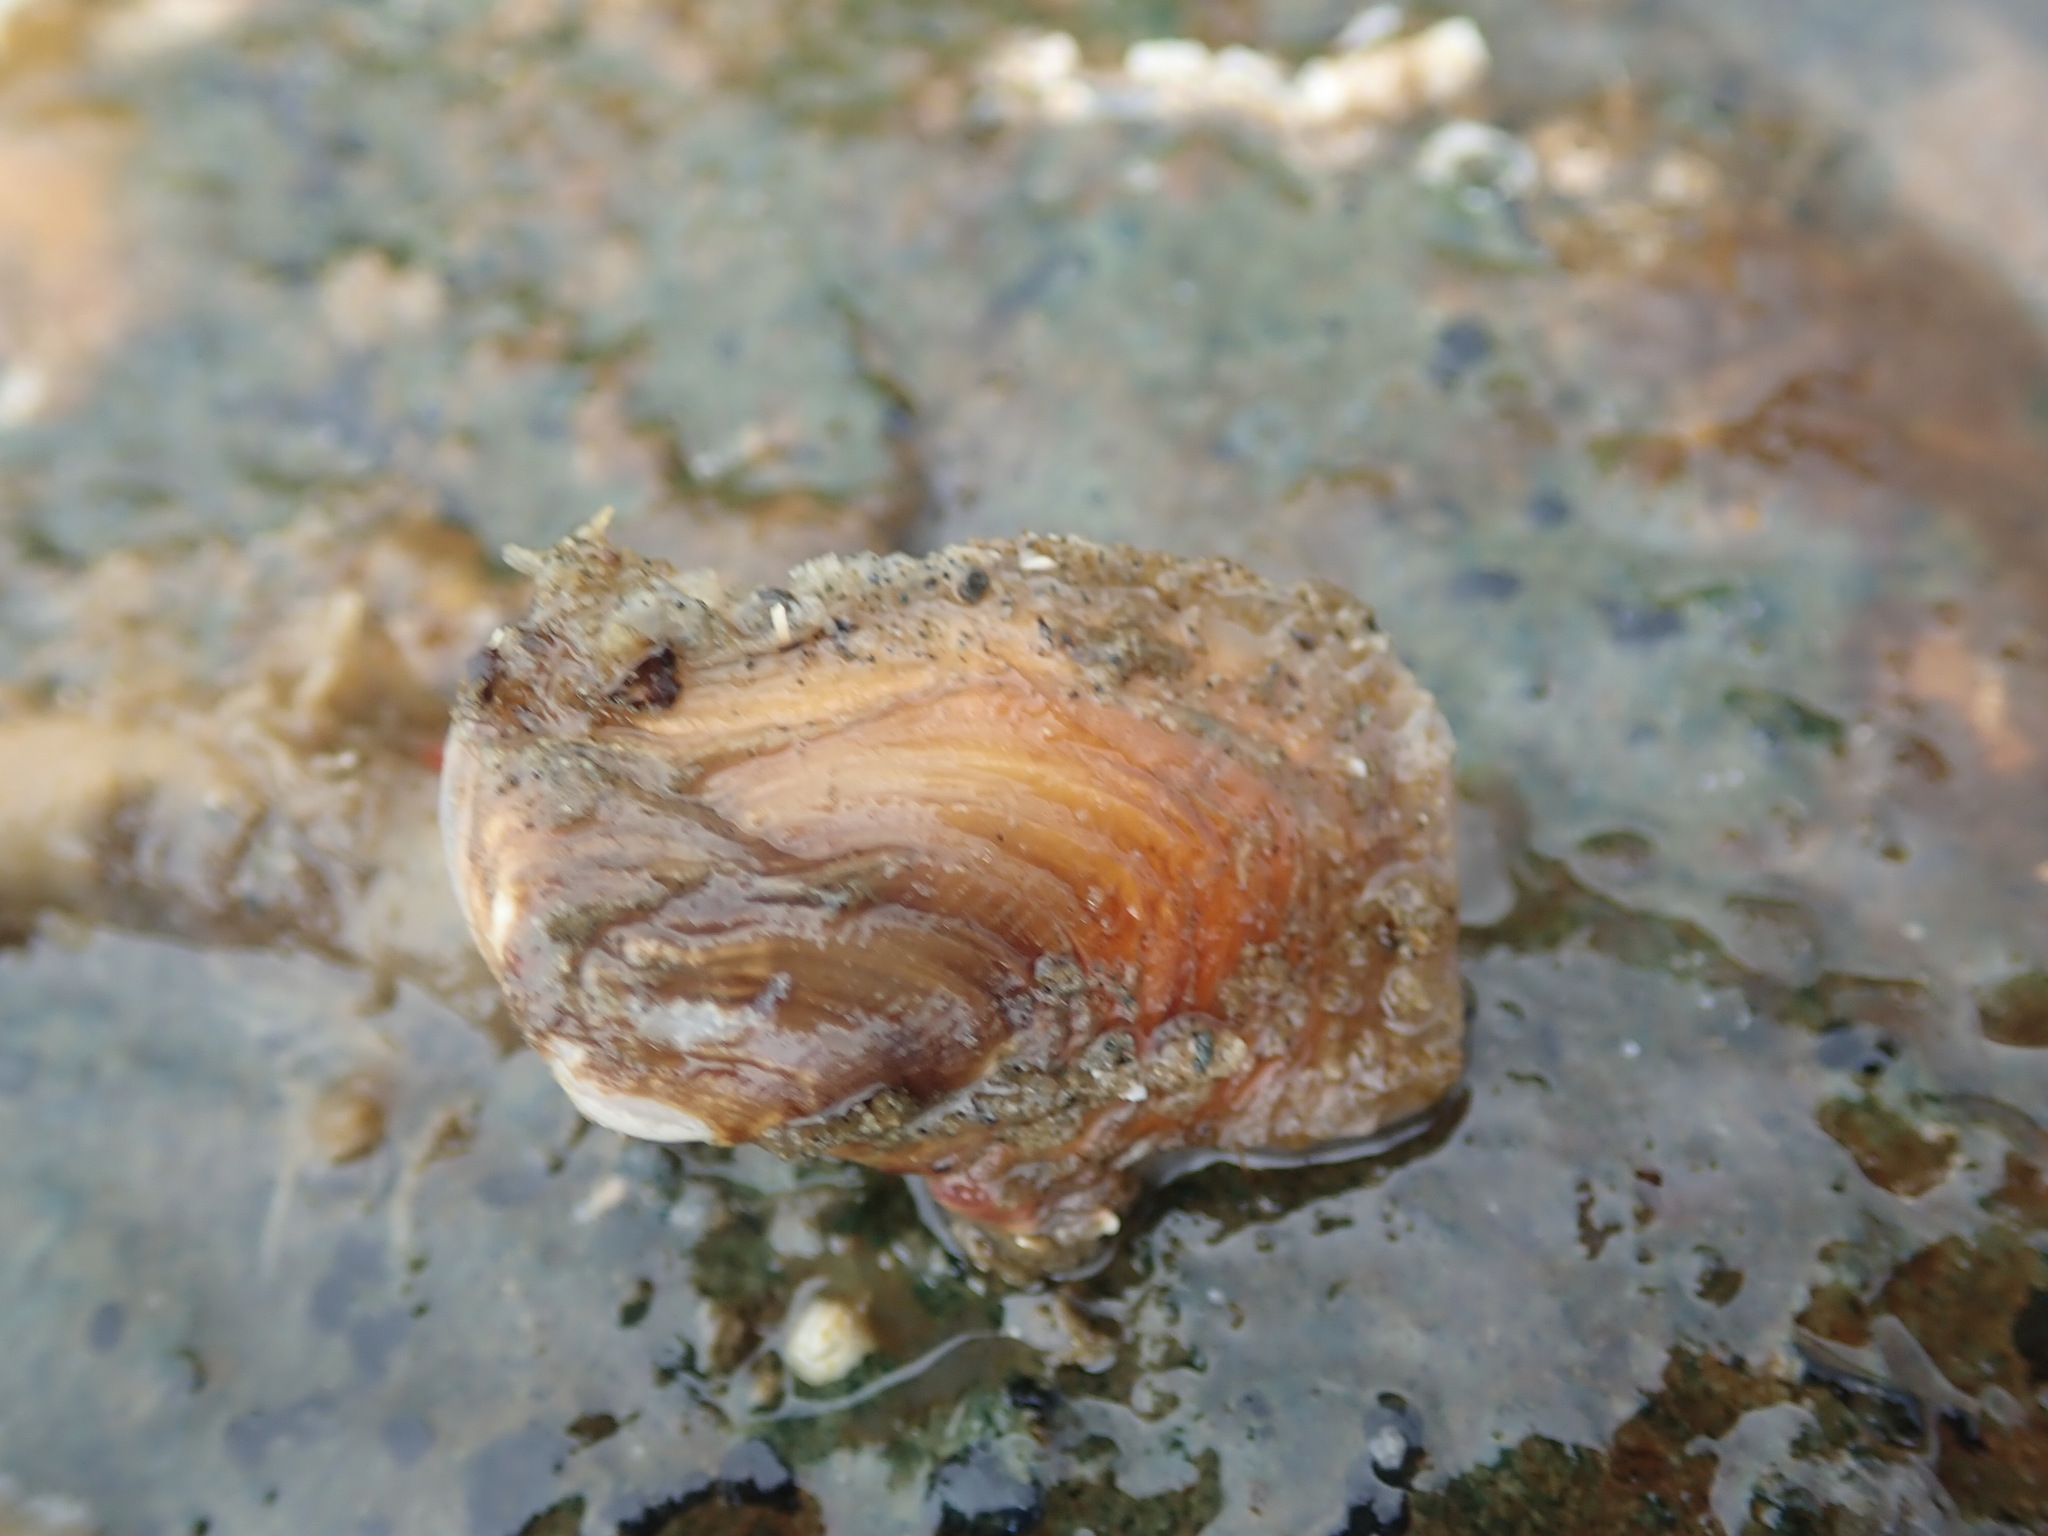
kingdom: Animalia
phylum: Mollusca
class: Bivalvia
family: Lyonsiidae
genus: Entodesma
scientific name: Entodesma navicula
